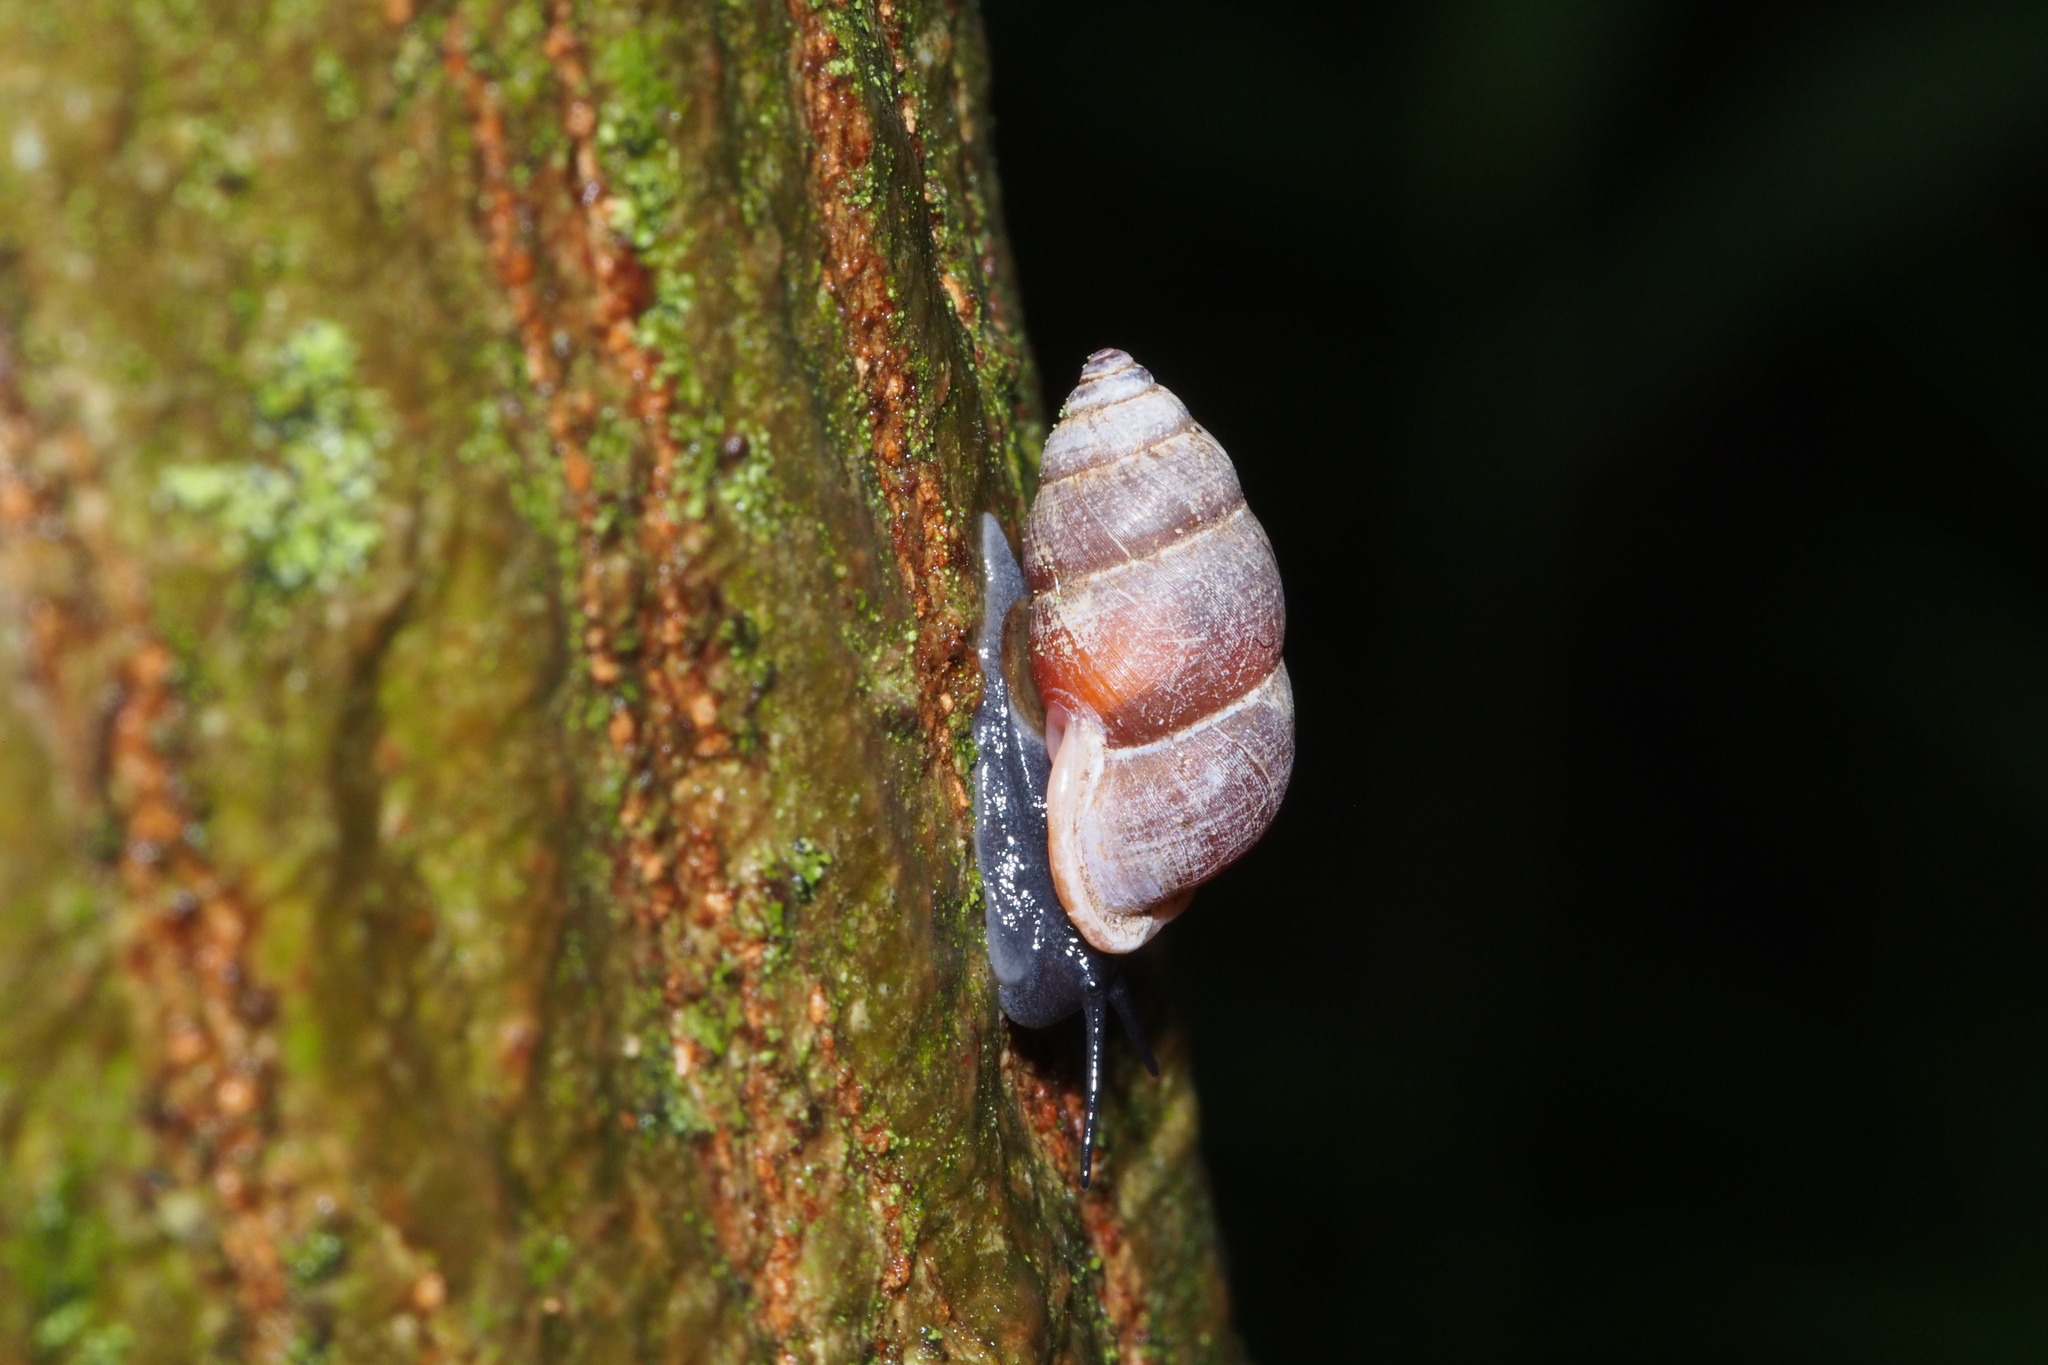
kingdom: Animalia
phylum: Mollusca
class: Gastropoda
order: Architaenioglossa
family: Pupinidae
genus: Pupinella
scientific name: Pupinella rufa
